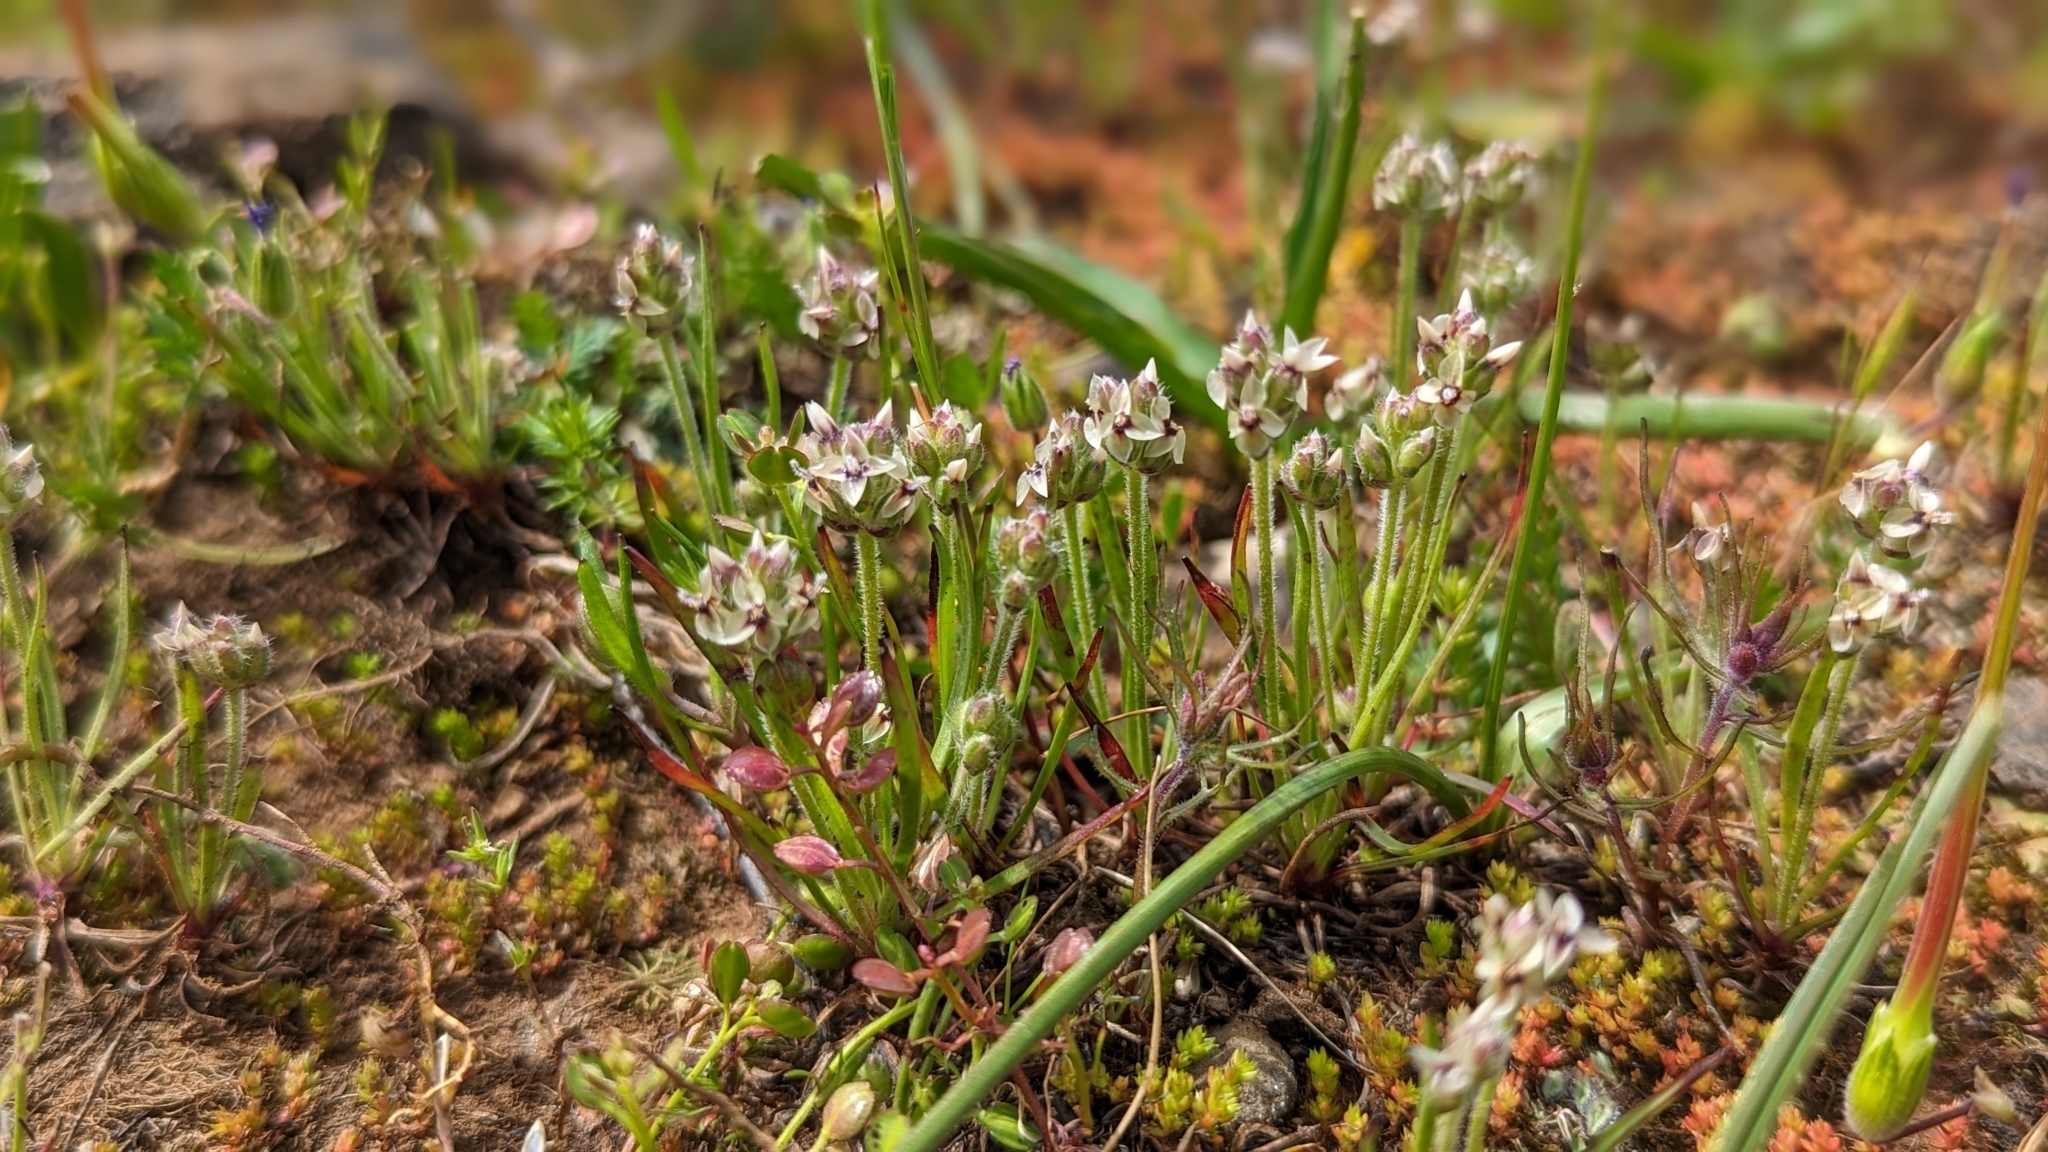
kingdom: Plantae
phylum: Tracheophyta
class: Magnoliopsida
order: Lamiales
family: Plantaginaceae
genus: Plantago
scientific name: Plantago erecta
